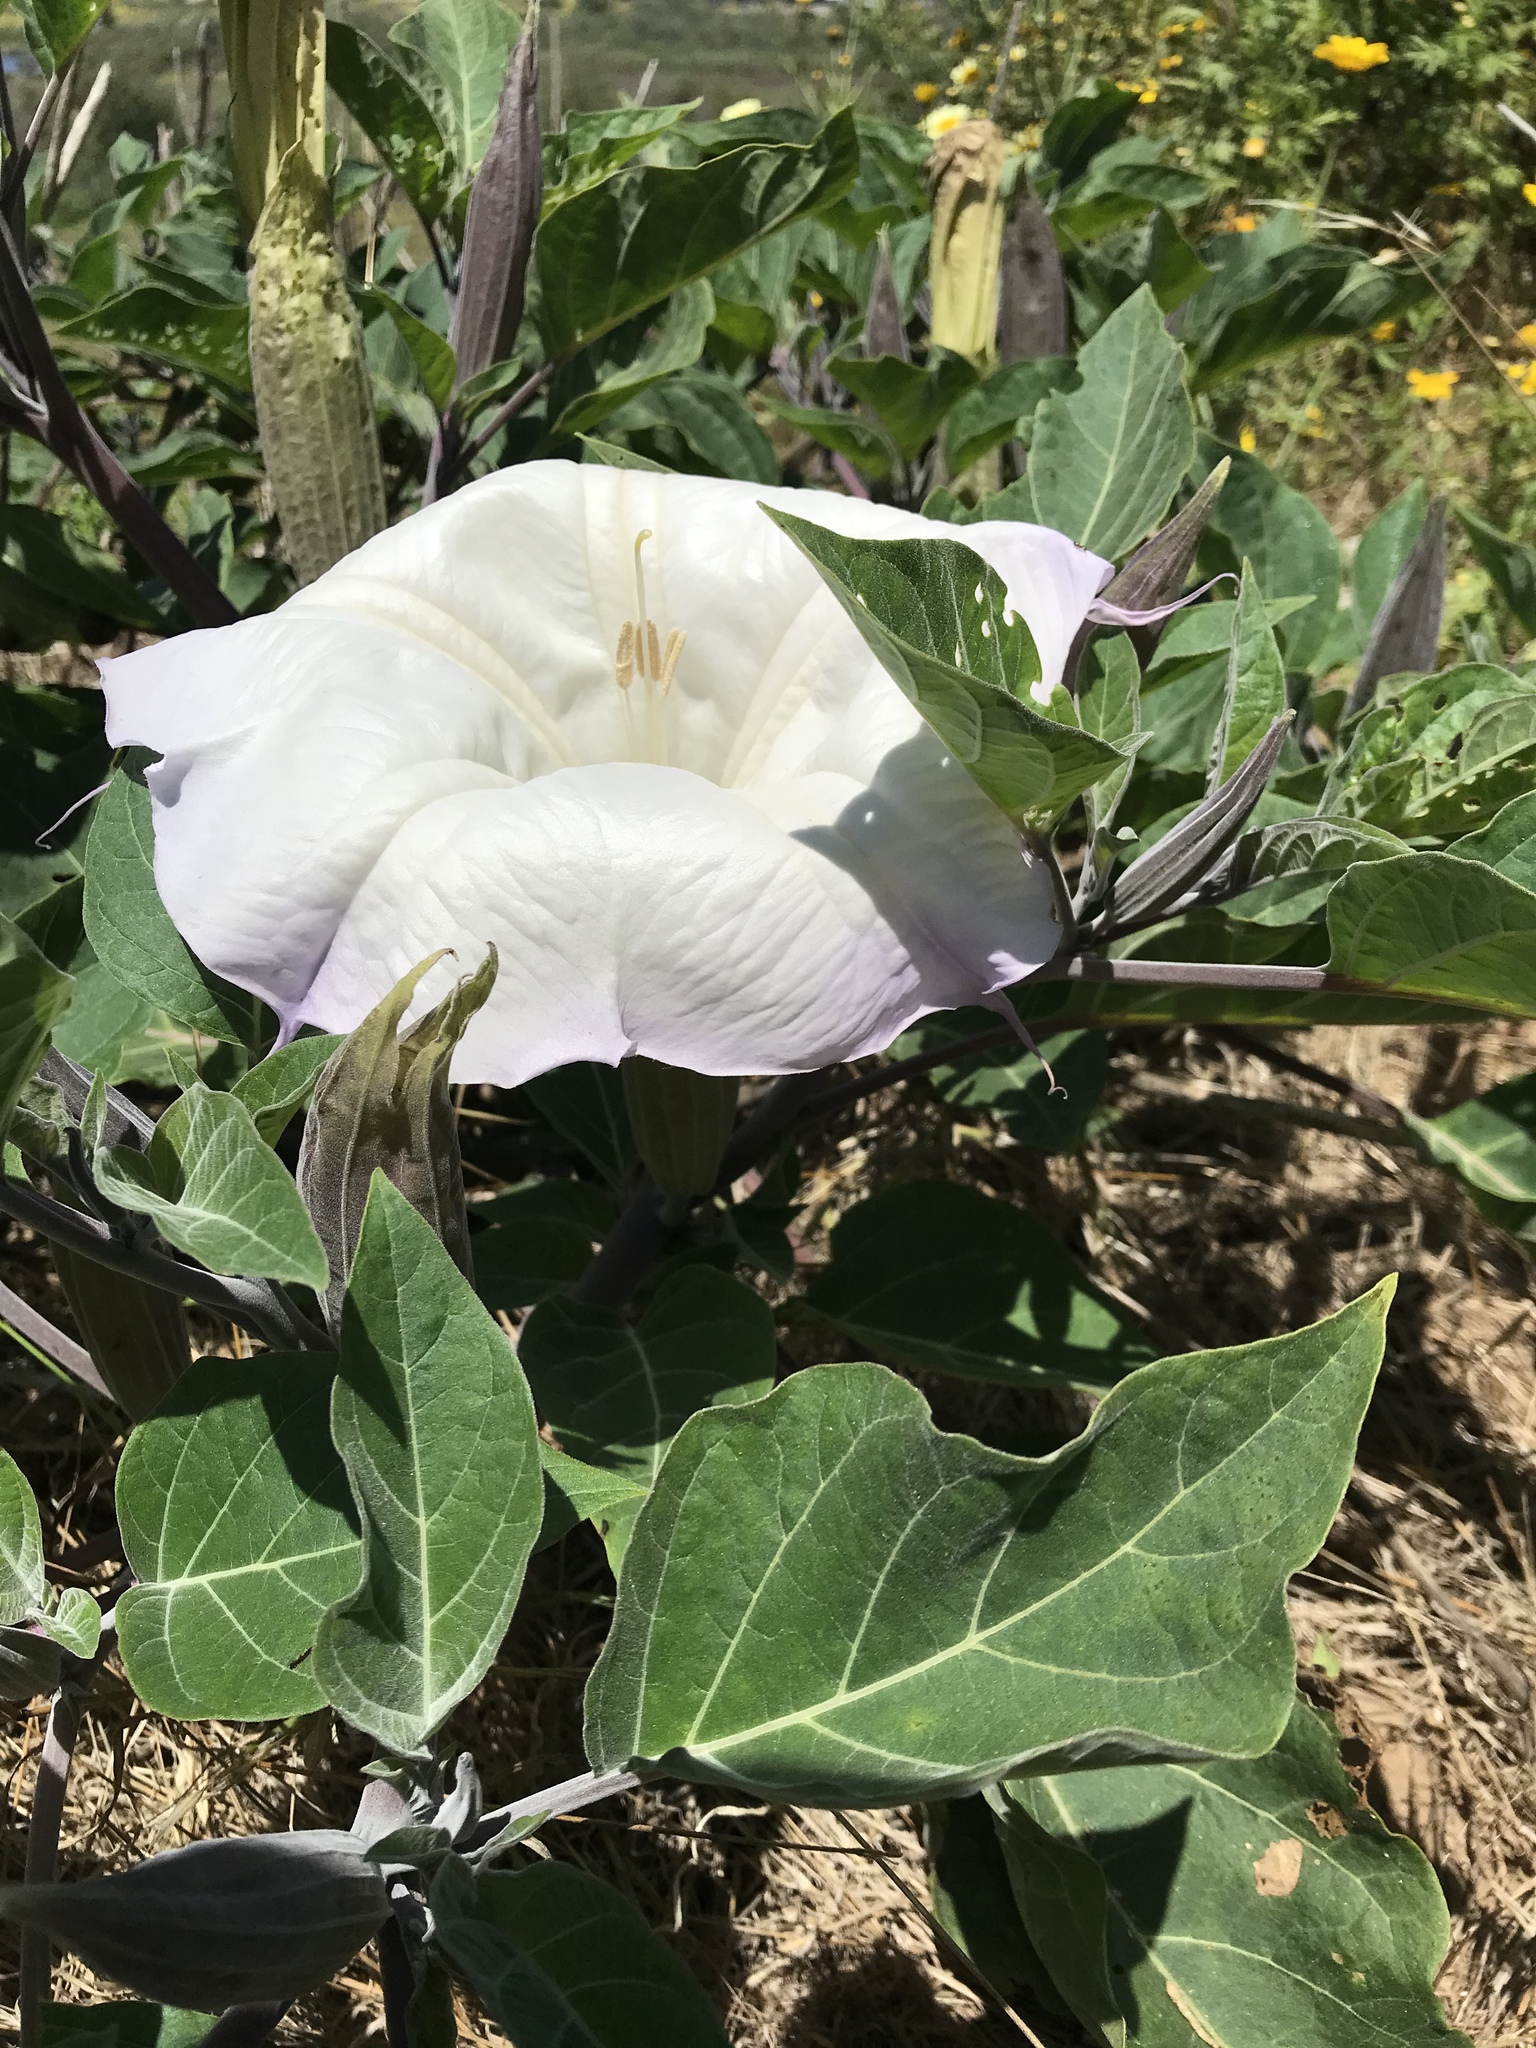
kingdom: Plantae
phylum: Tracheophyta
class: Magnoliopsida
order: Solanales
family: Solanaceae
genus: Datura
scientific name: Datura wrightii
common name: Sacred thorn-apple
